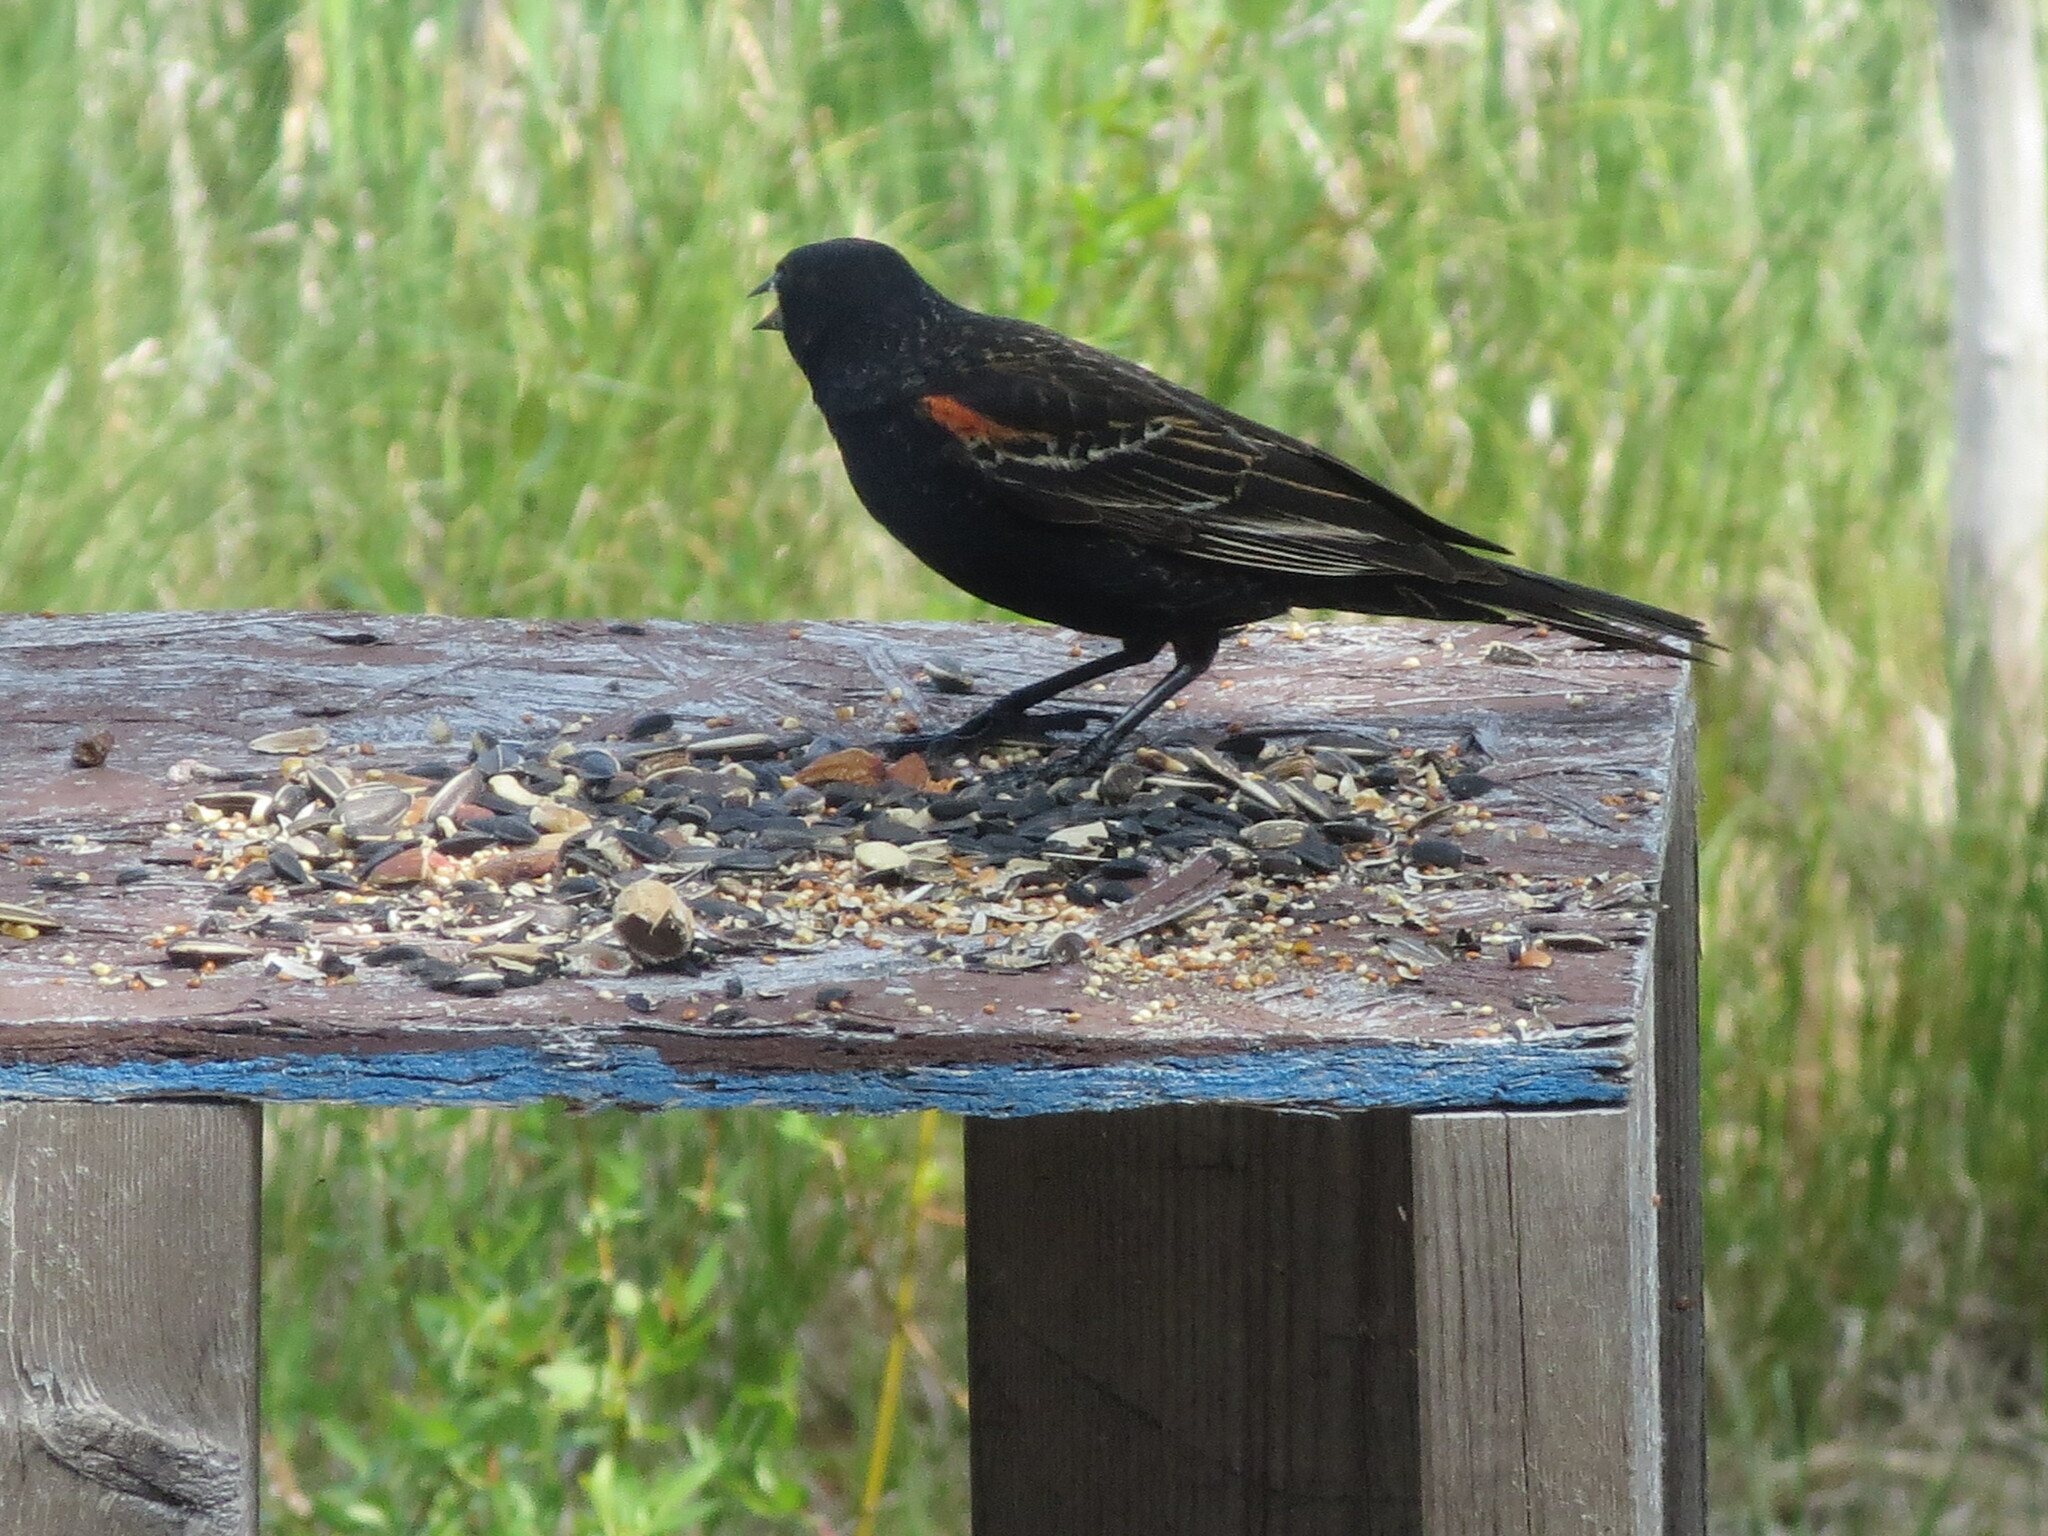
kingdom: Animalia
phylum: Chordata
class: Aves
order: Passeriformes
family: Icteridae
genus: Agelaius
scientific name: Agelaius phoeniceus
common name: Red-winged blackbird
